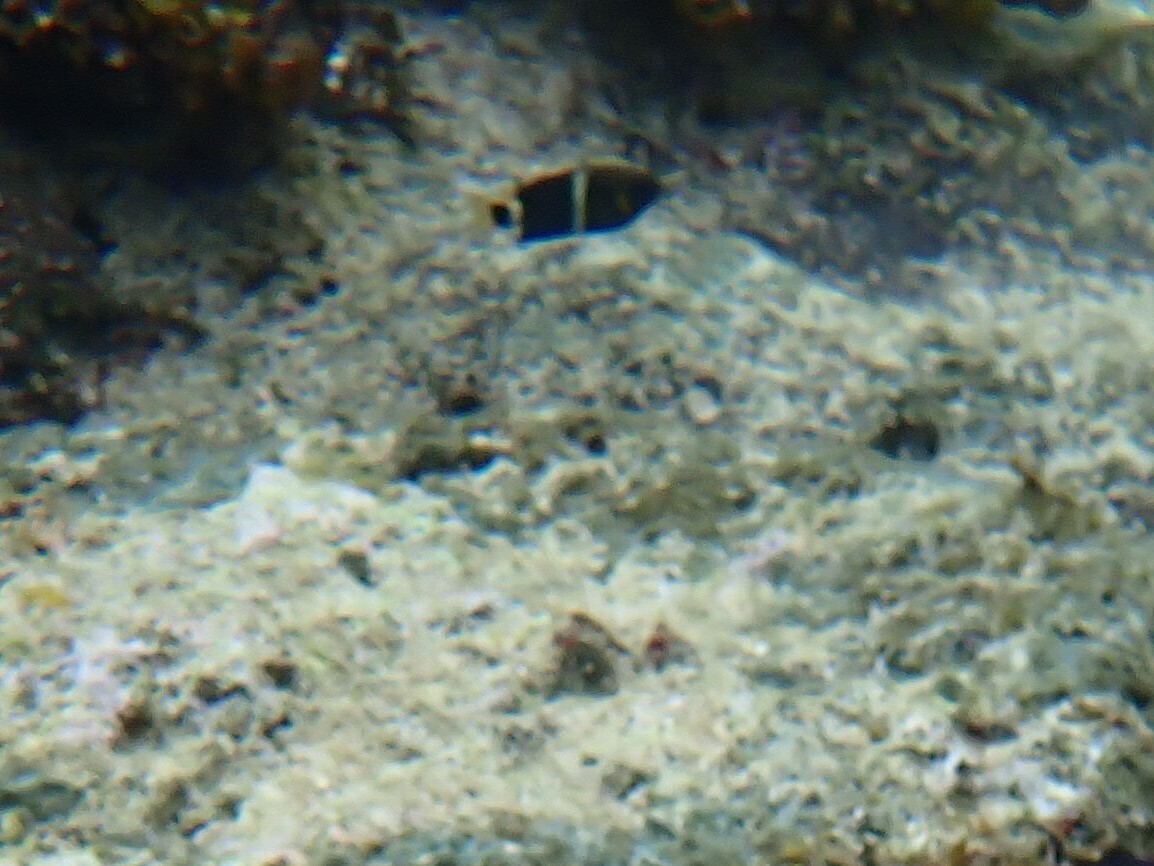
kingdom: Animalia
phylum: Chordata
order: Perciformes
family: Pomacentridae
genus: Chrysiptera
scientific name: Chrysiptera brownriggii
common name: Surge demoiselle
